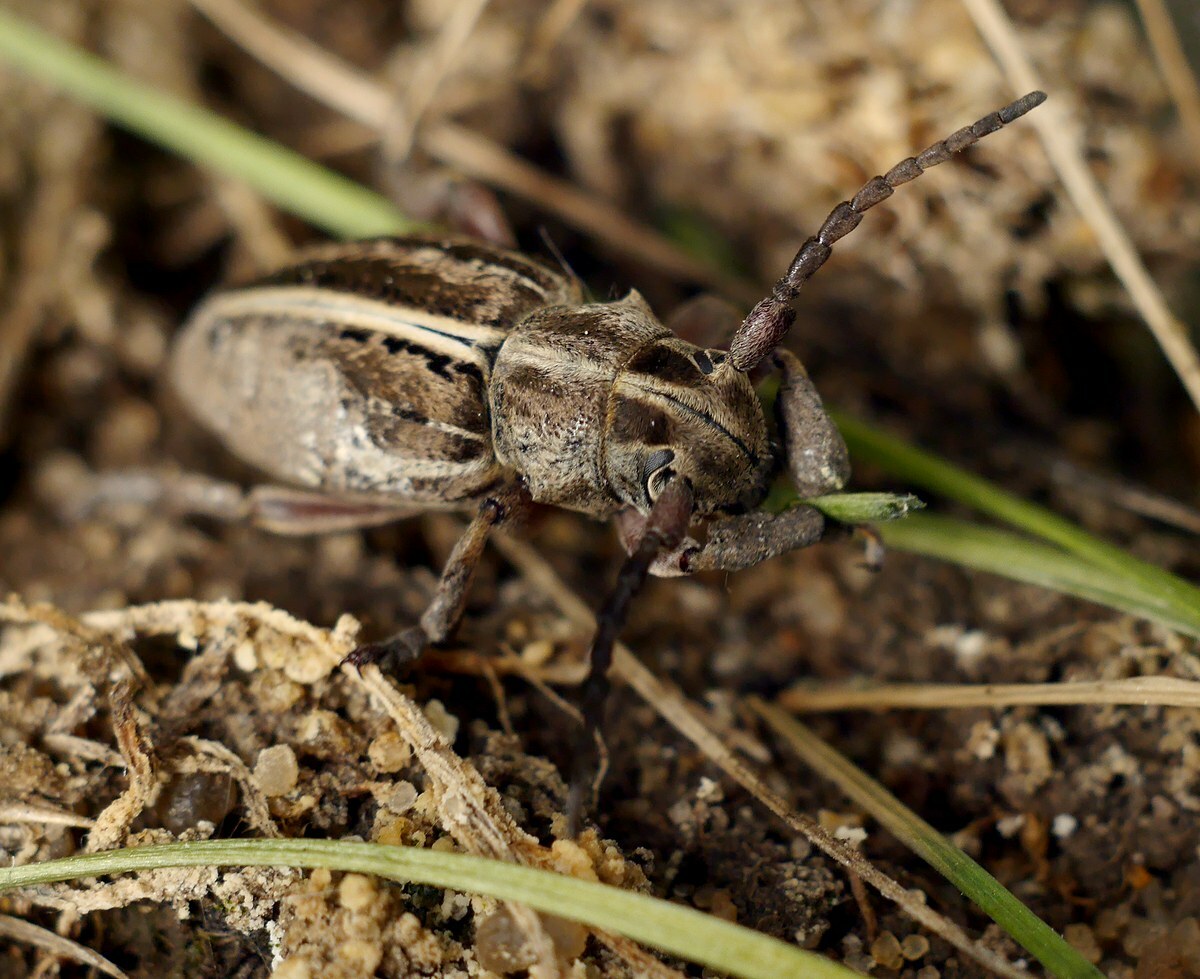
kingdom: Animalia
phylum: Arthropoda
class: Insecta
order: Coleoptera
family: Cerambycidae
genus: Dorcadion
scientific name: Dorcadion holosericeum
